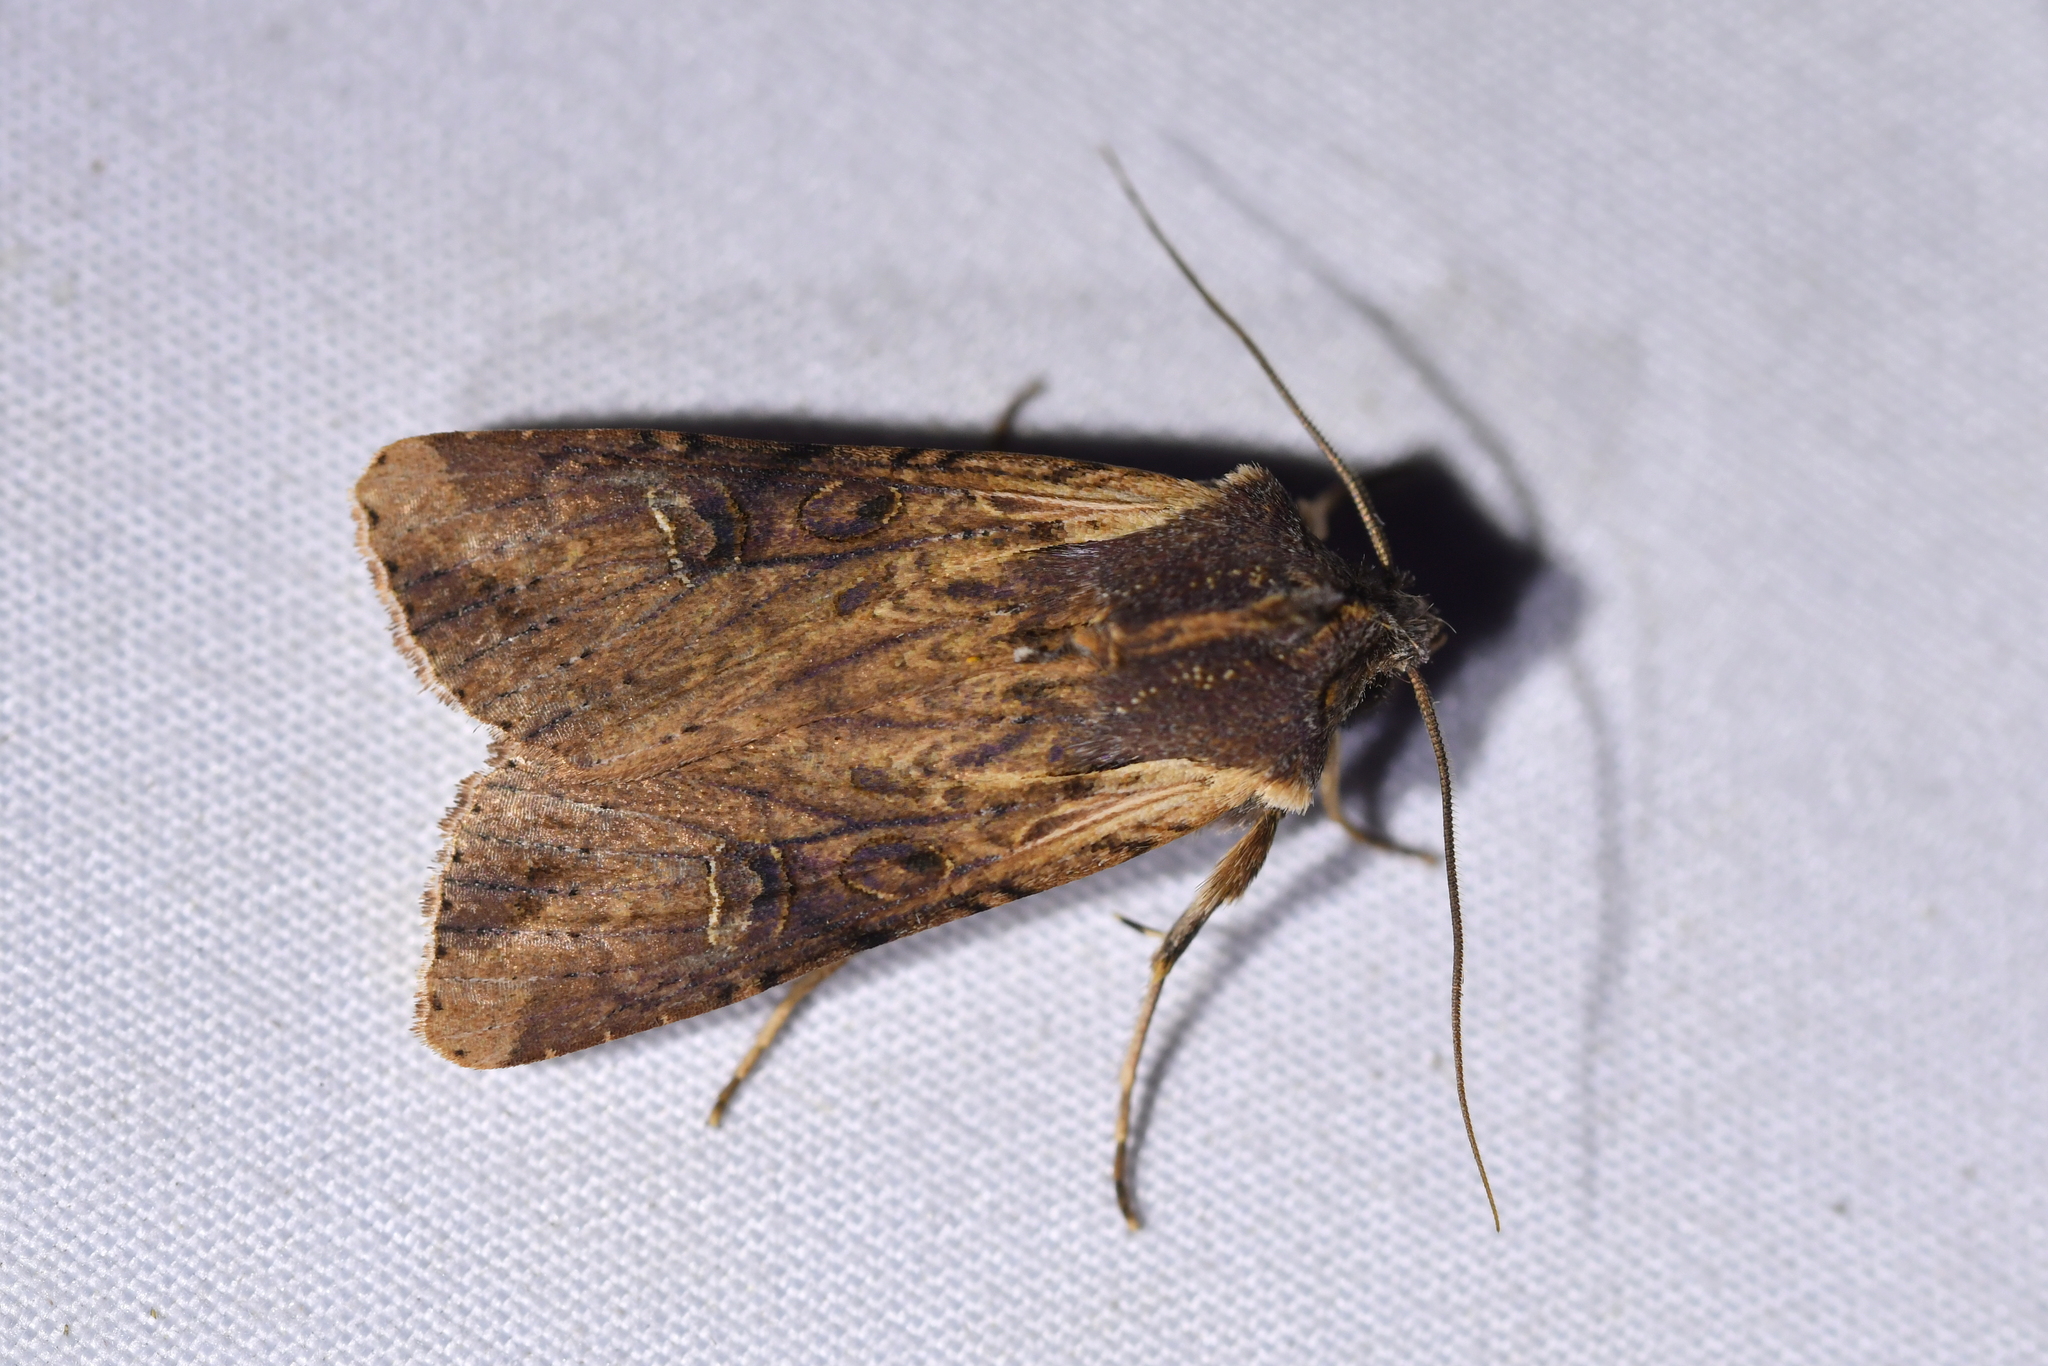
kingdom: Animalia
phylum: Arthropoda
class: Insecta
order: Lepidoptera
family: Noctuidae
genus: Ichneutica
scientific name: Ichneutica omoplaca
